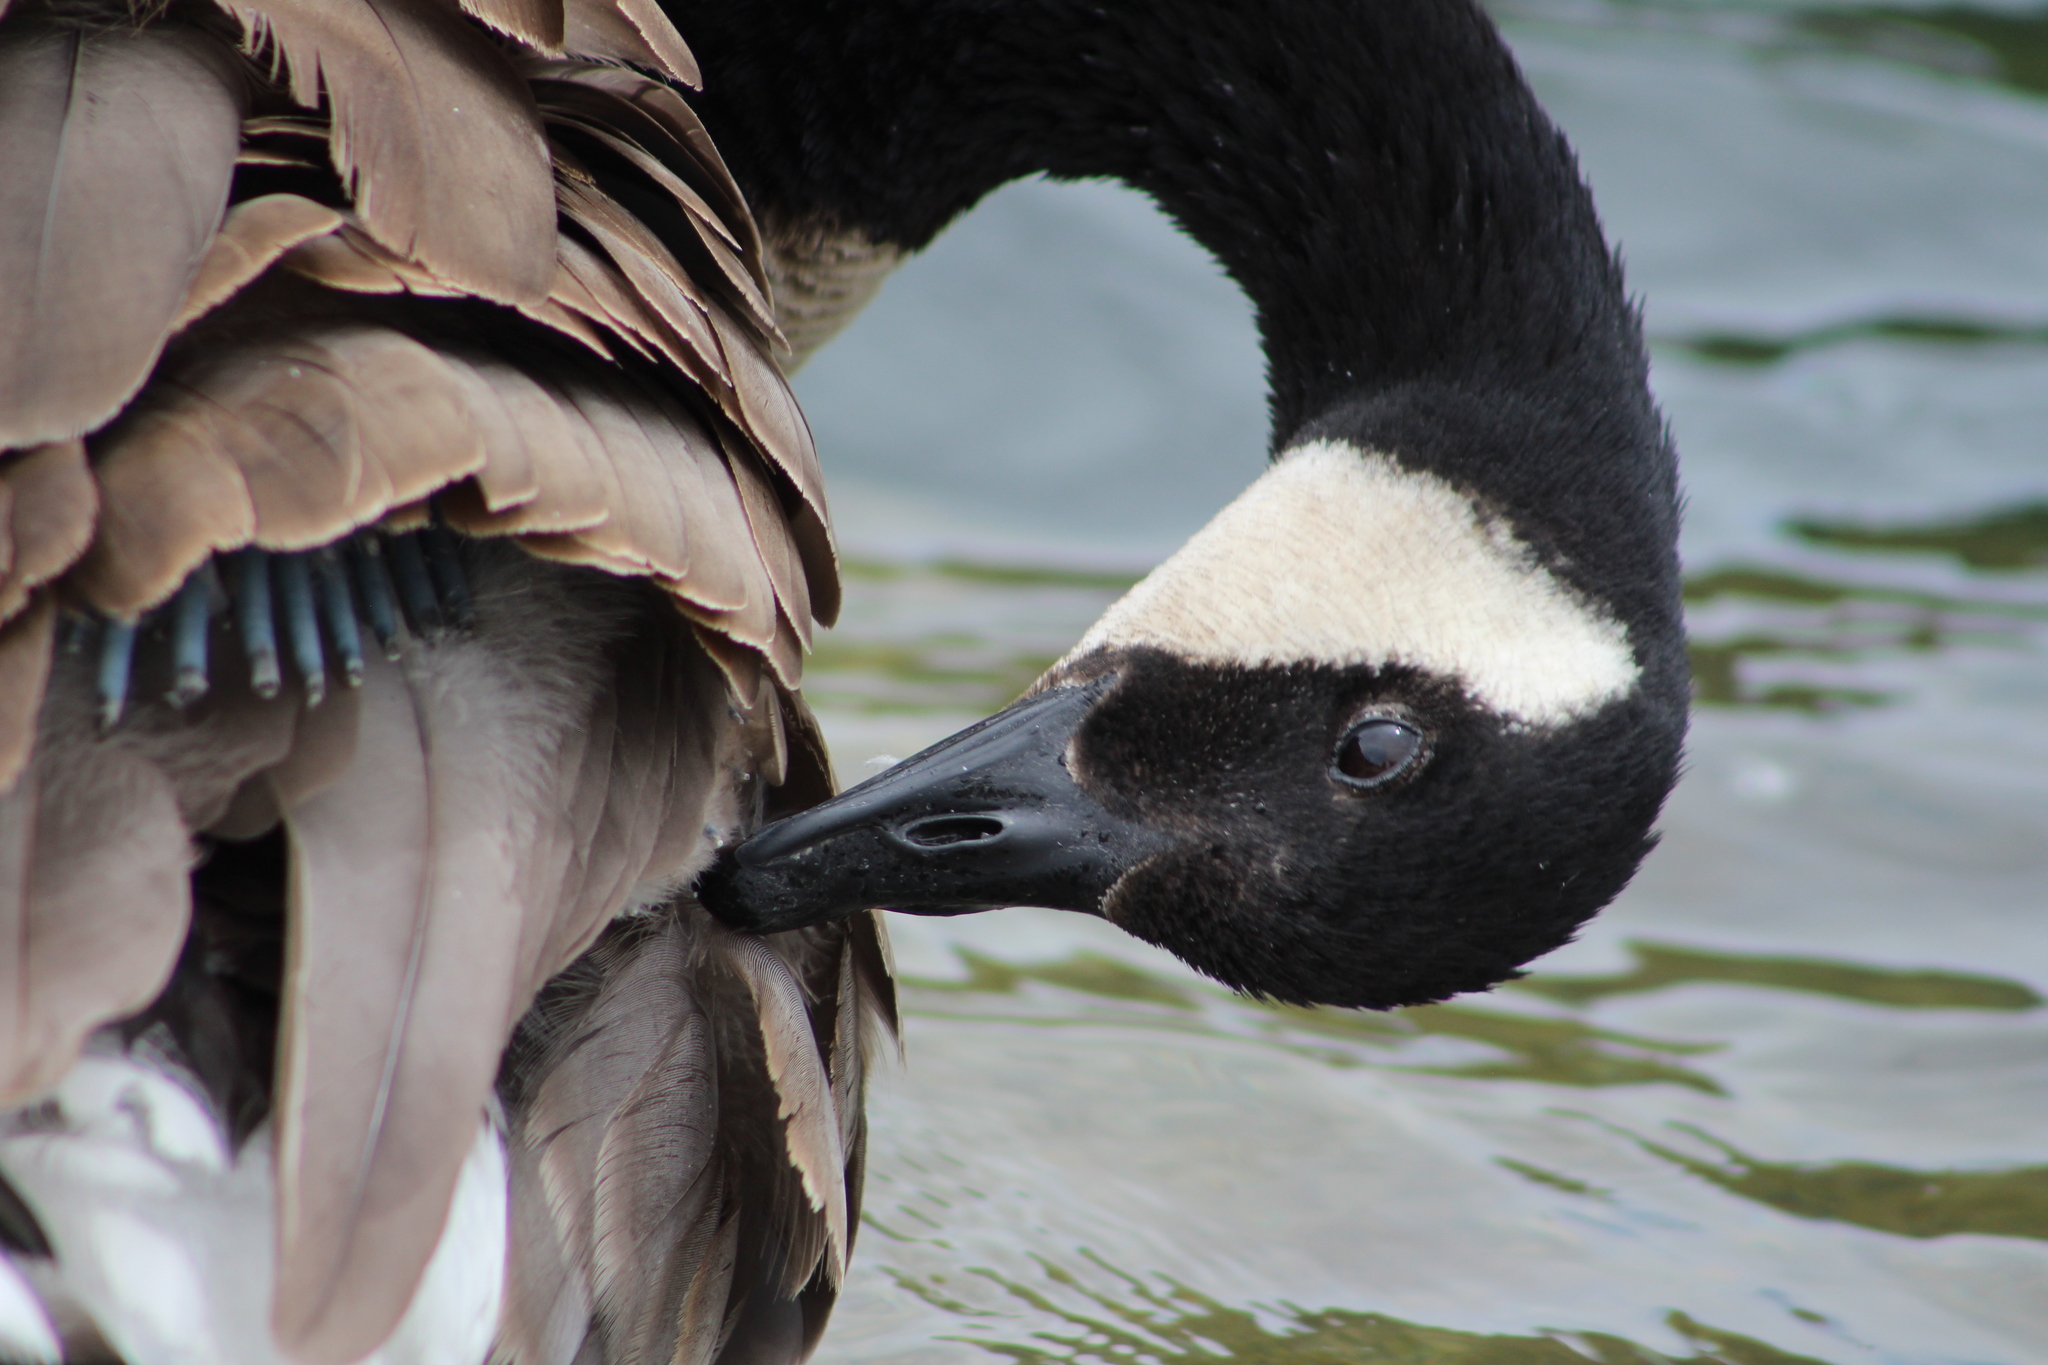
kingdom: Animalia
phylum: Chordata
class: Aves
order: Anseriformes
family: Anatidae
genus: Branta
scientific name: Branta canadensis
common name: Canada goose
